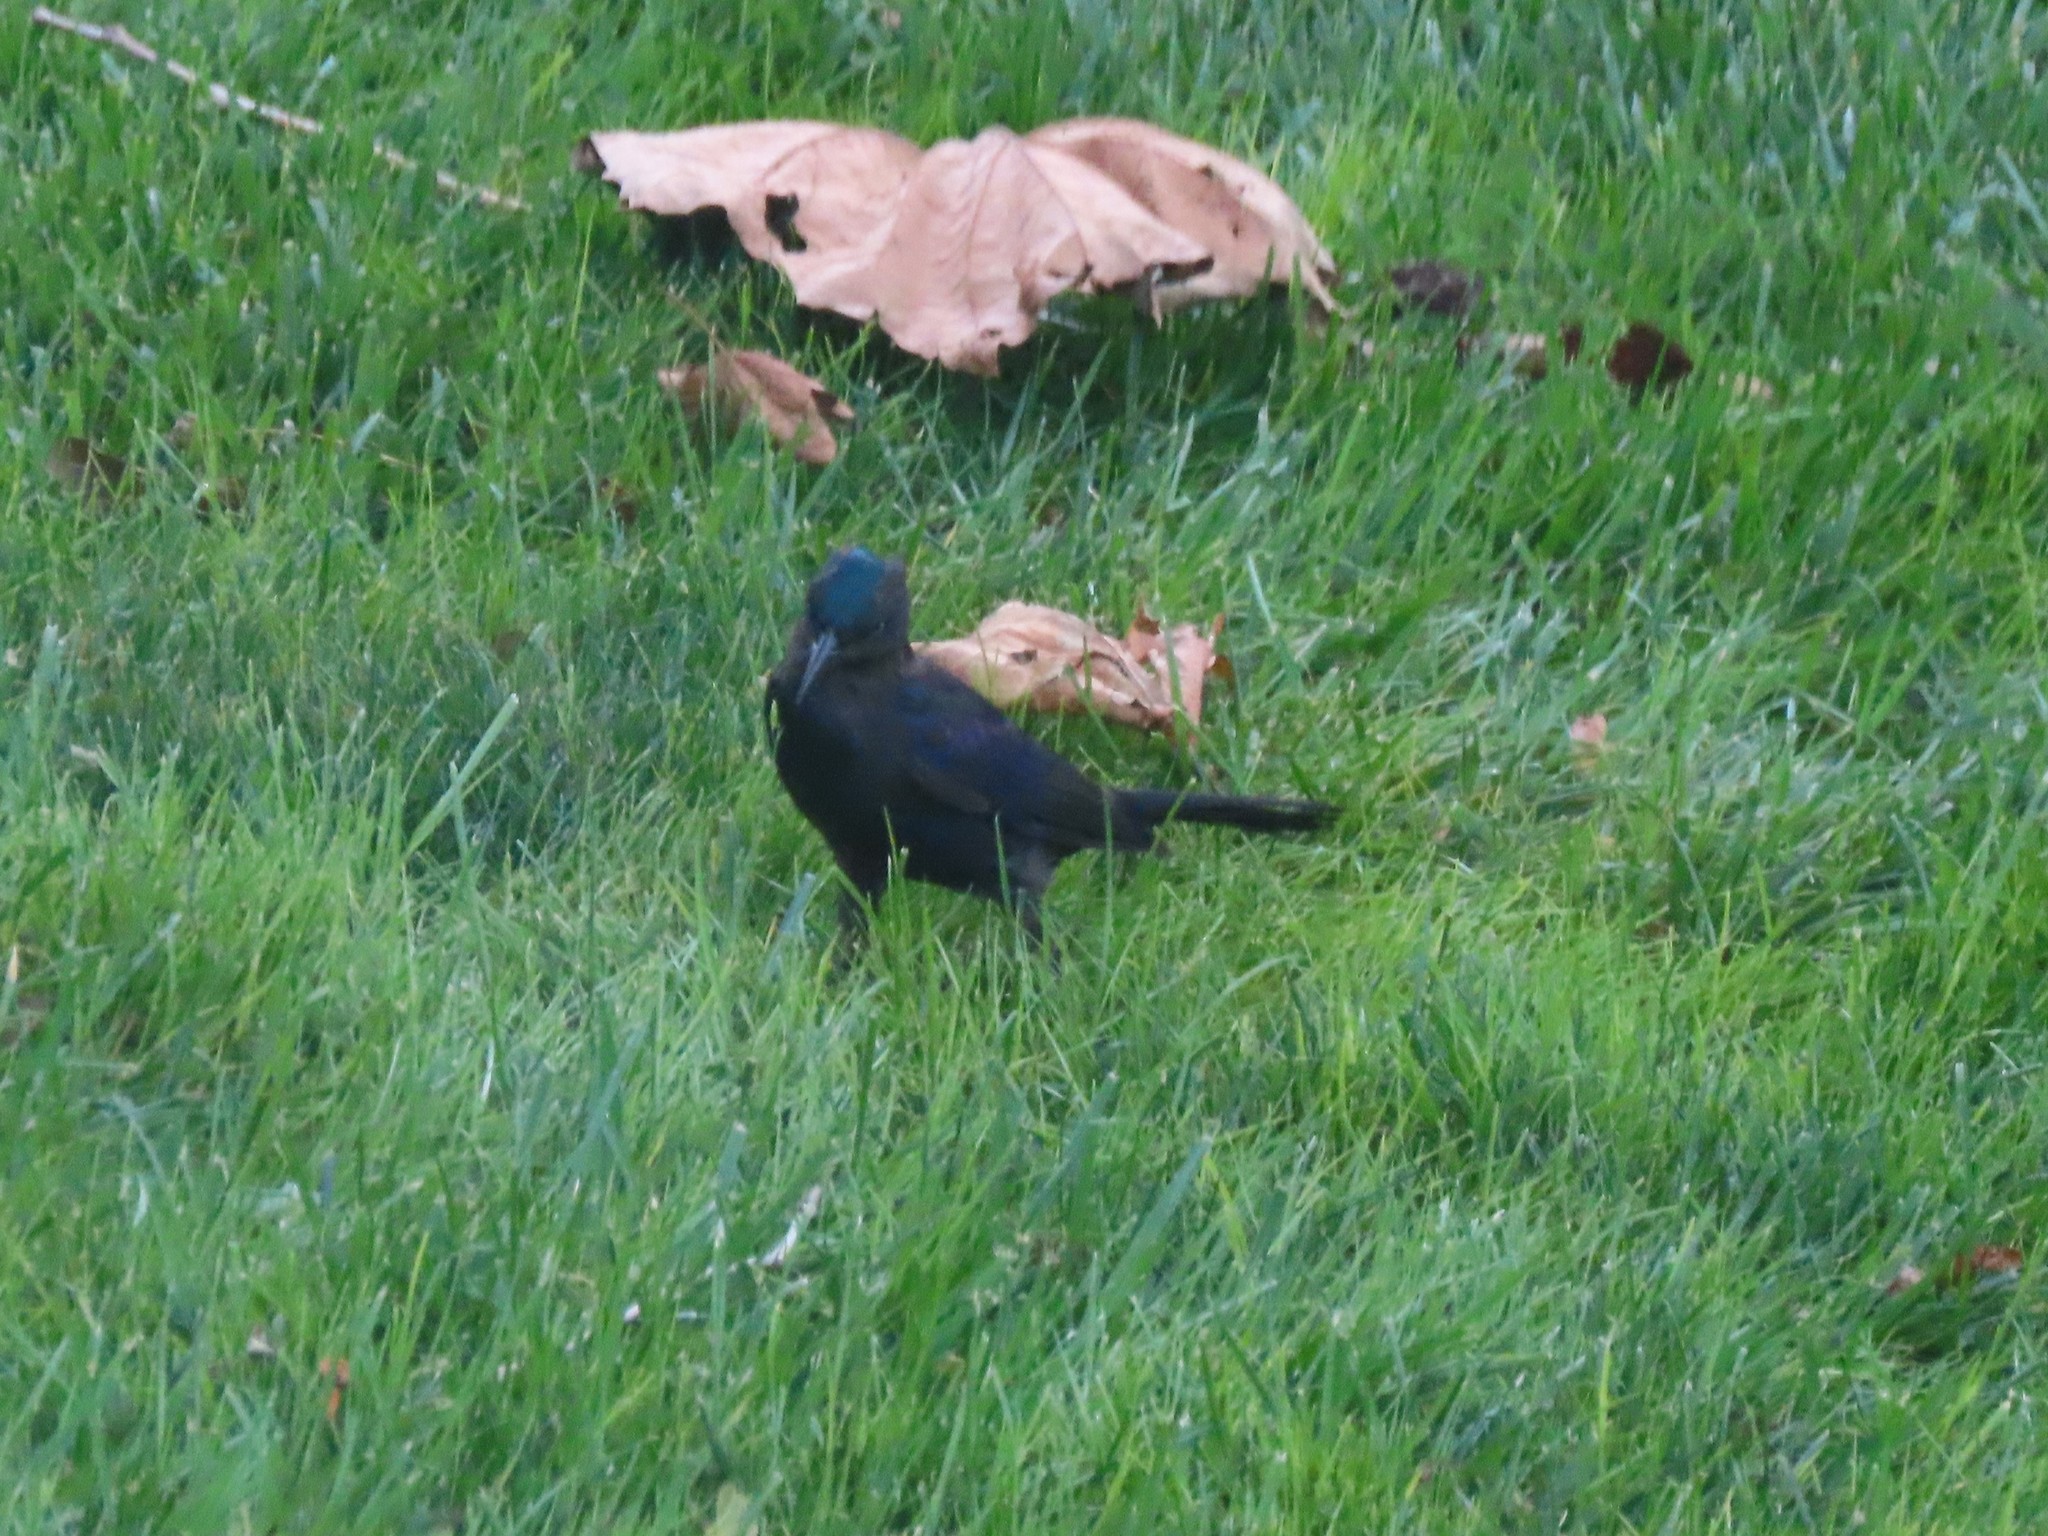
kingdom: Animalia
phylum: Chordata
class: Aves
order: Passeriformes
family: Icteridae
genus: Quiscalus
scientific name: Quiscalus quiscula
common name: Common grackle
